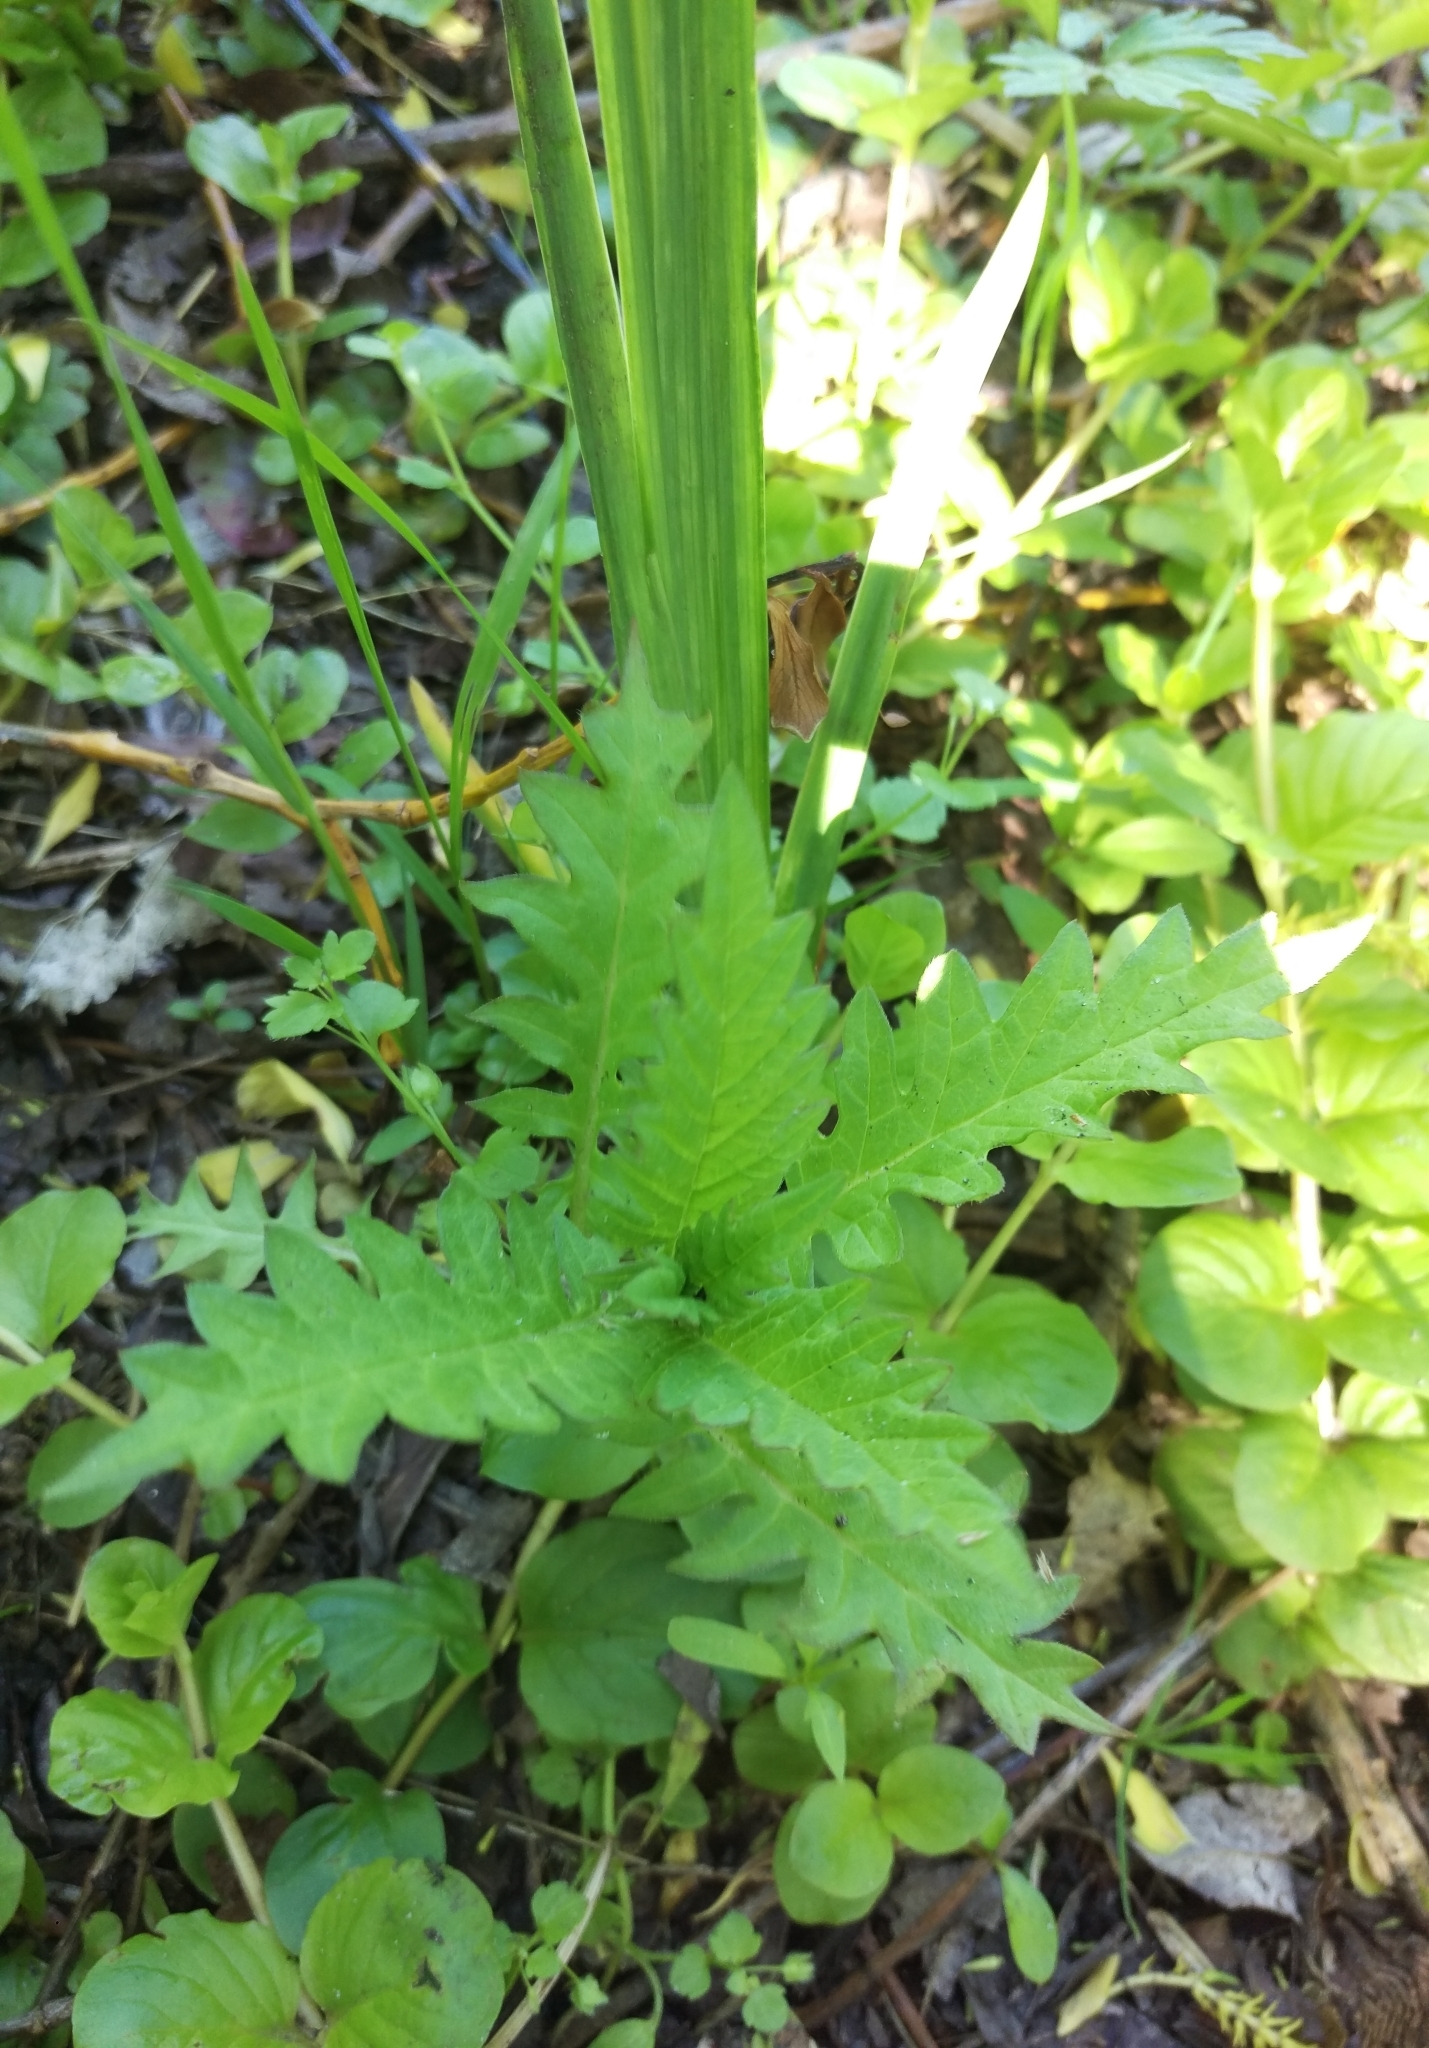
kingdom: Plantae
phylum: Tracheophyta
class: Magnoliopsida
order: Lamiales
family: Lamiaceae
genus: Lycopus
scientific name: Lycopus europaeus
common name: European bugleweed
